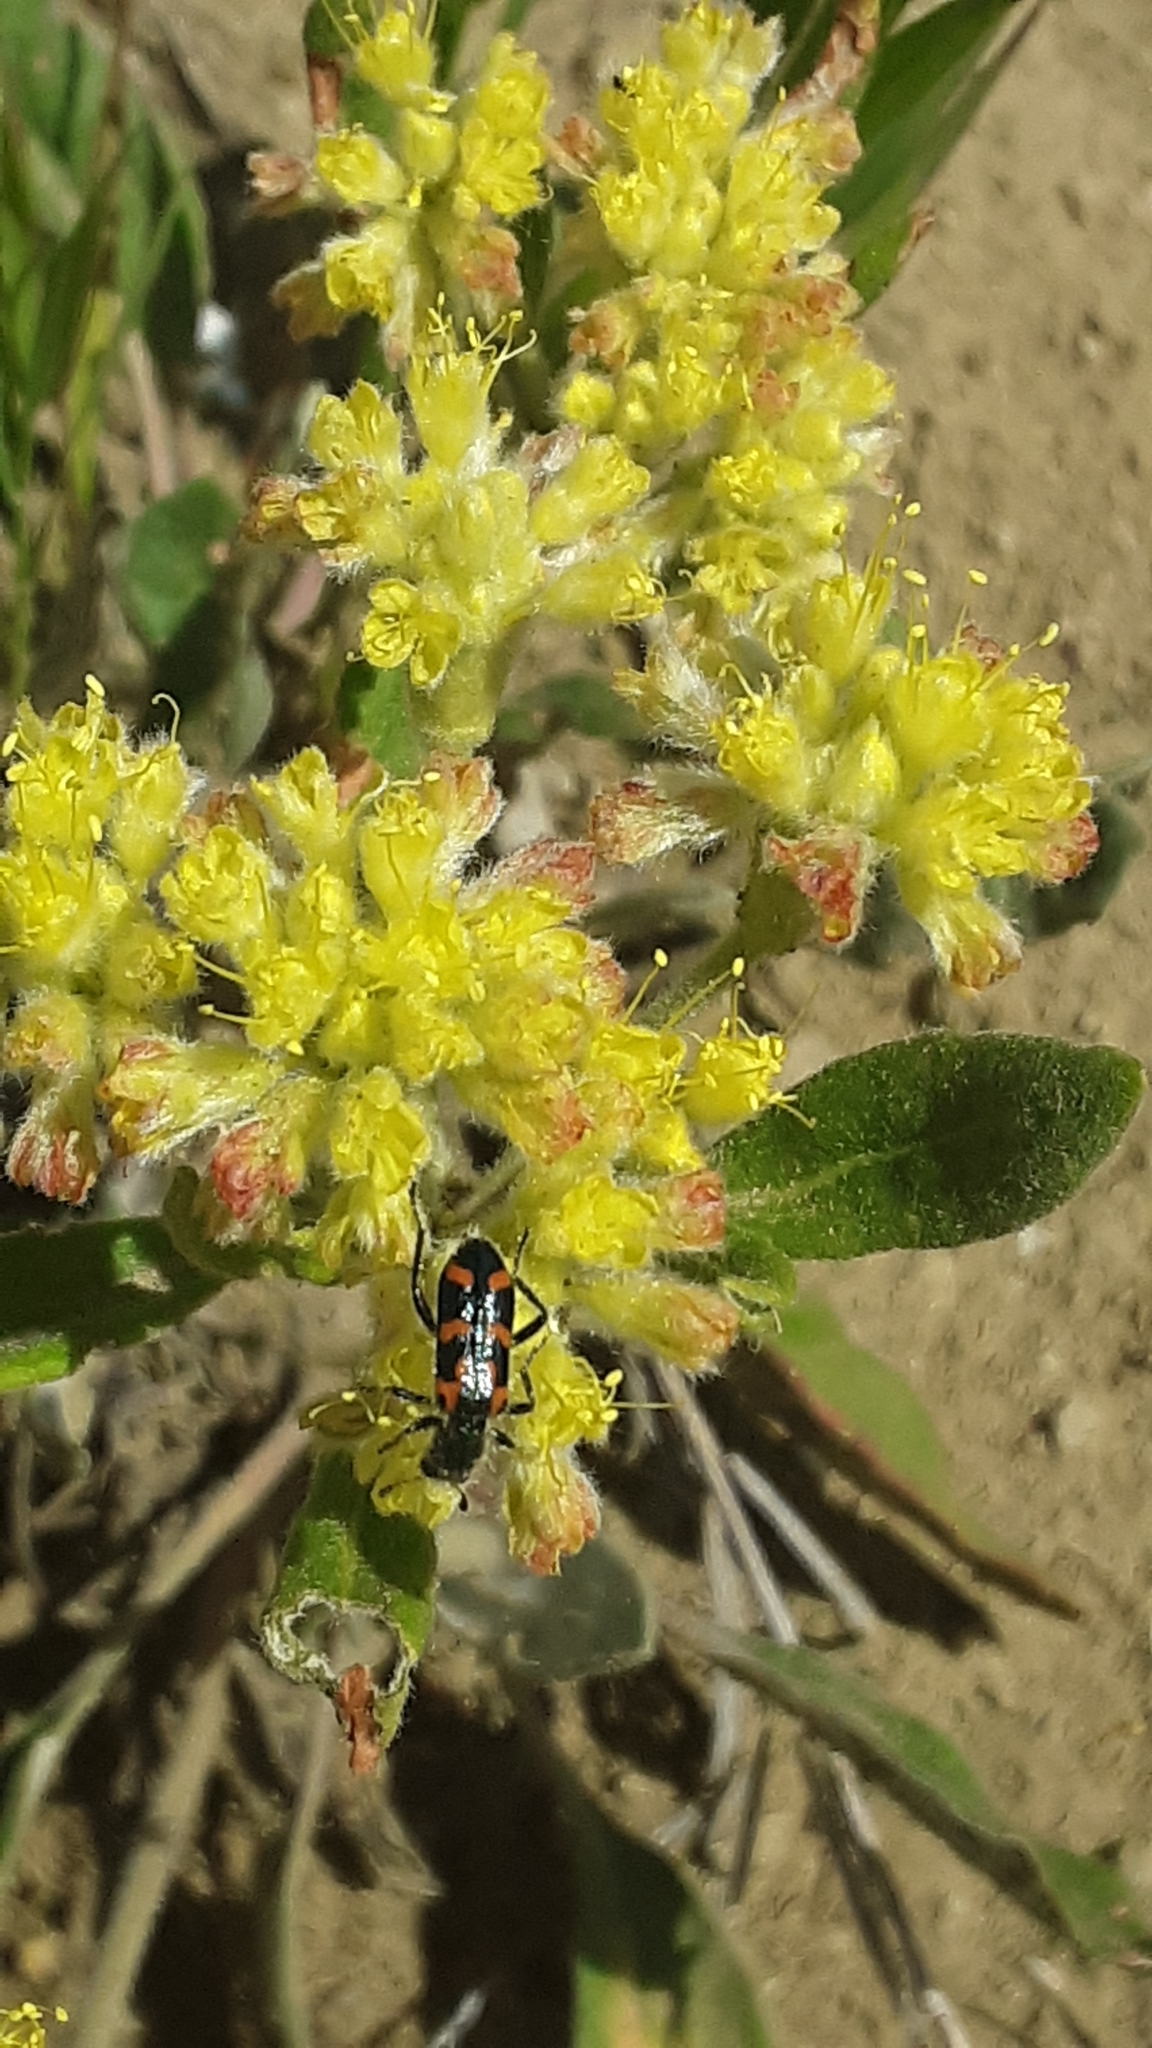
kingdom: Animalia
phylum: Arthropoda
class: Insecta
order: Coleoptera
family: Cleridae
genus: Trichodes
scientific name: Trichodes ornatus
